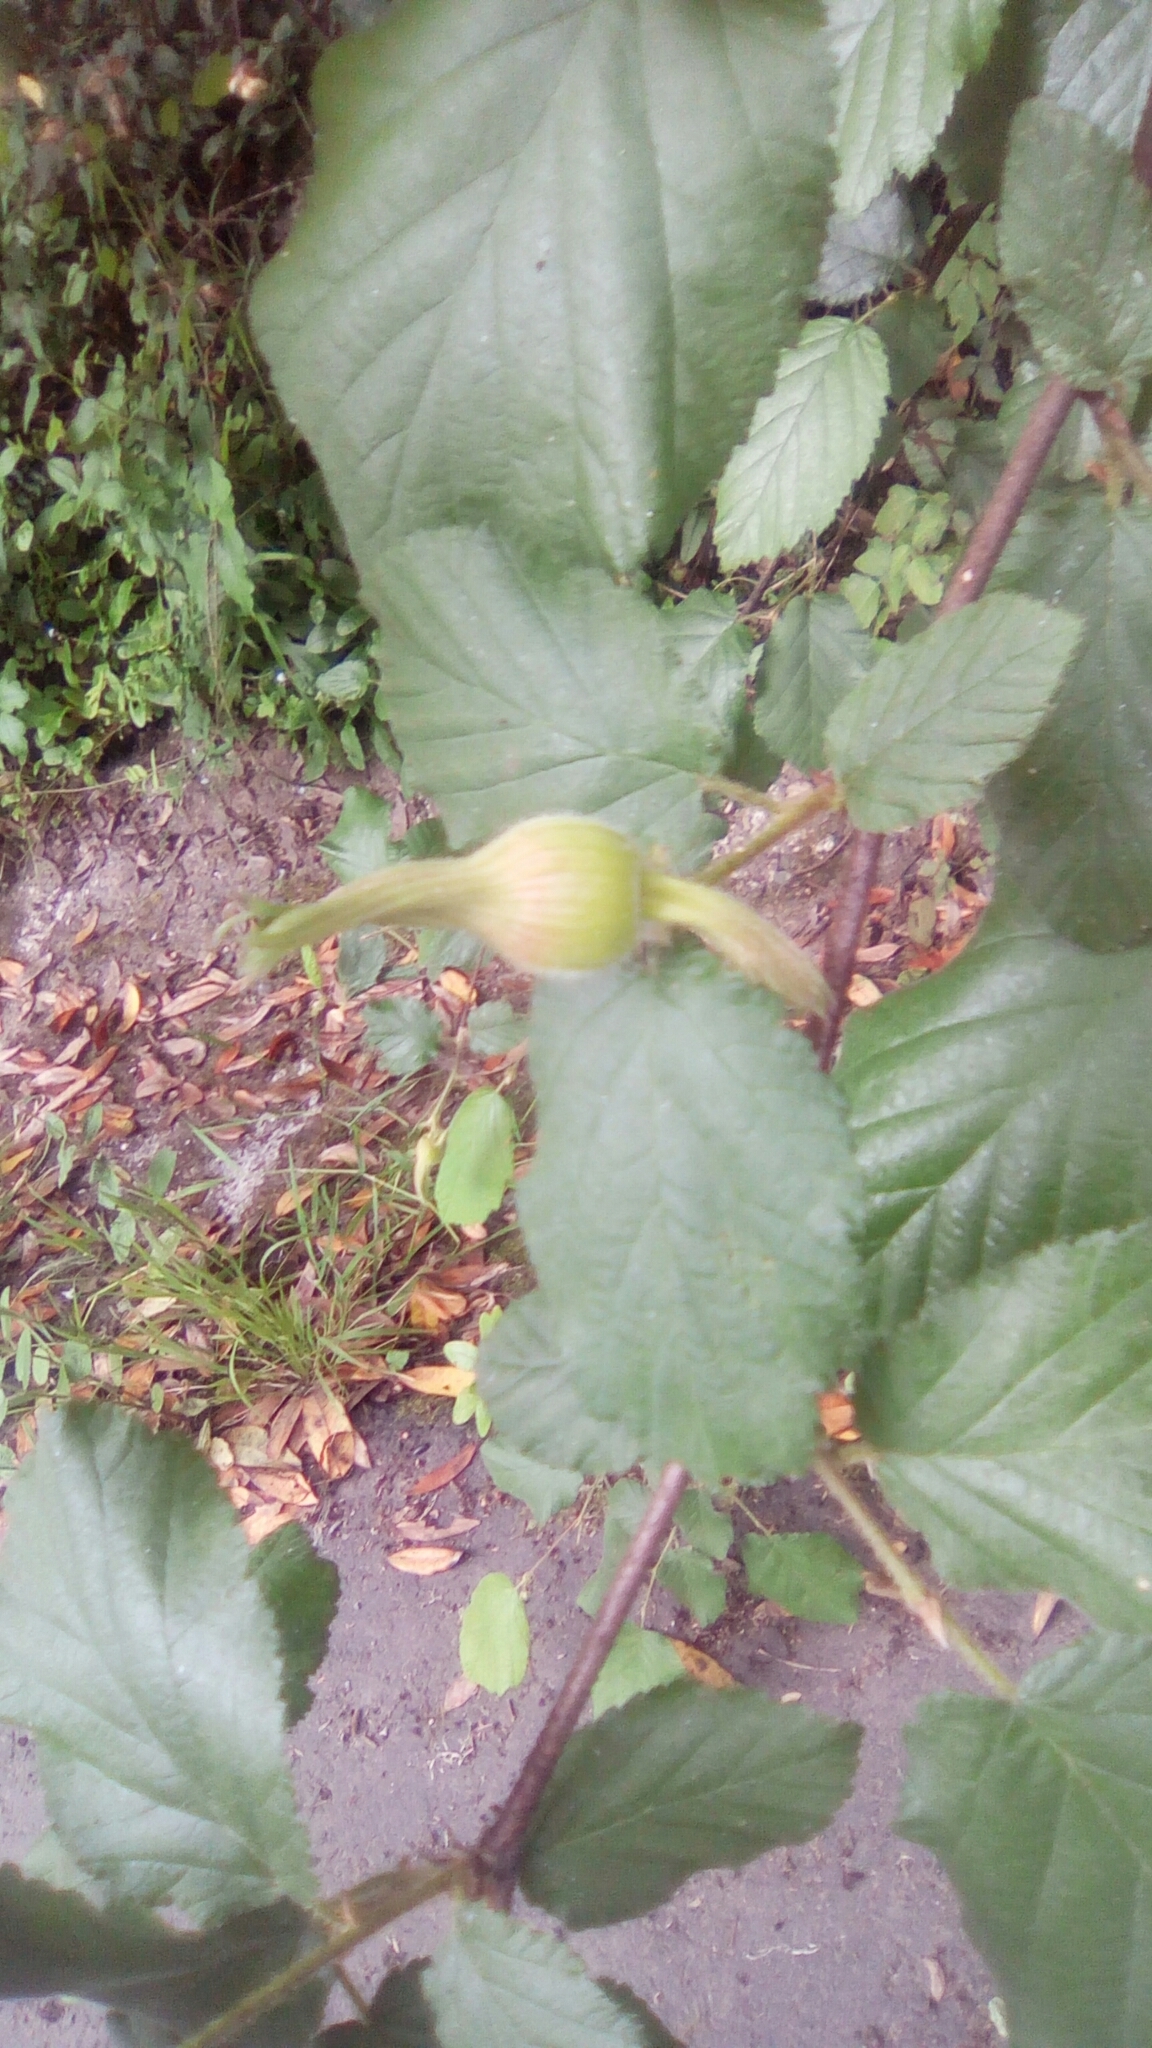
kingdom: Plantae
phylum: Tracheophyta
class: Magnoliopsida
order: Fagales
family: Betulaceae
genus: Corylus
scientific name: Corylus cornuta
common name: Beaked hazel
